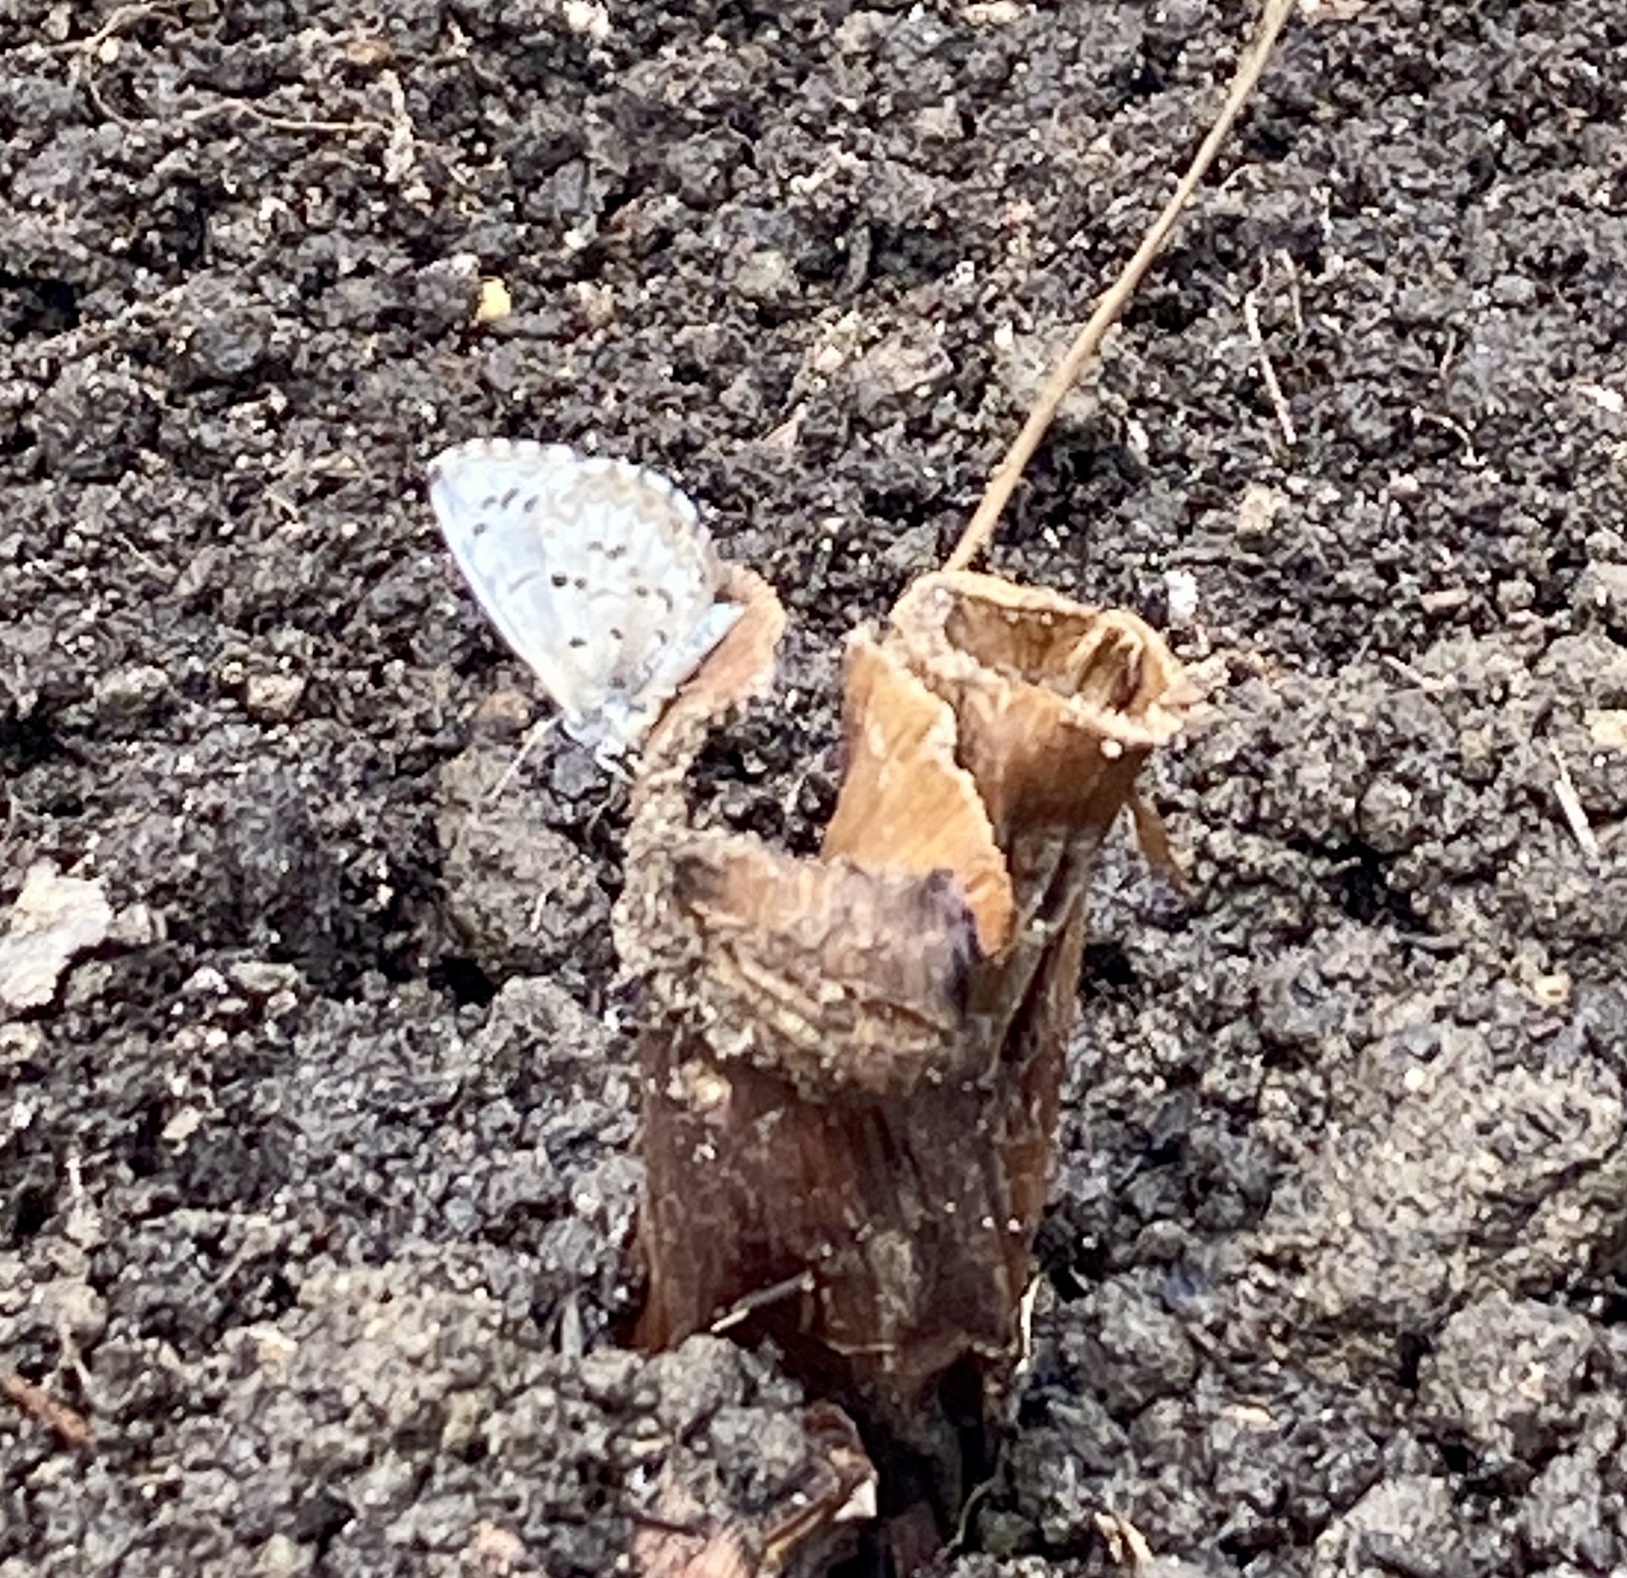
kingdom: Animalia
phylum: Arthropoda
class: Insecta
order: Lepidoptera
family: Lycaenidae
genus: Celastrina
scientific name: Celastrina lucia
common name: Lucia azure
